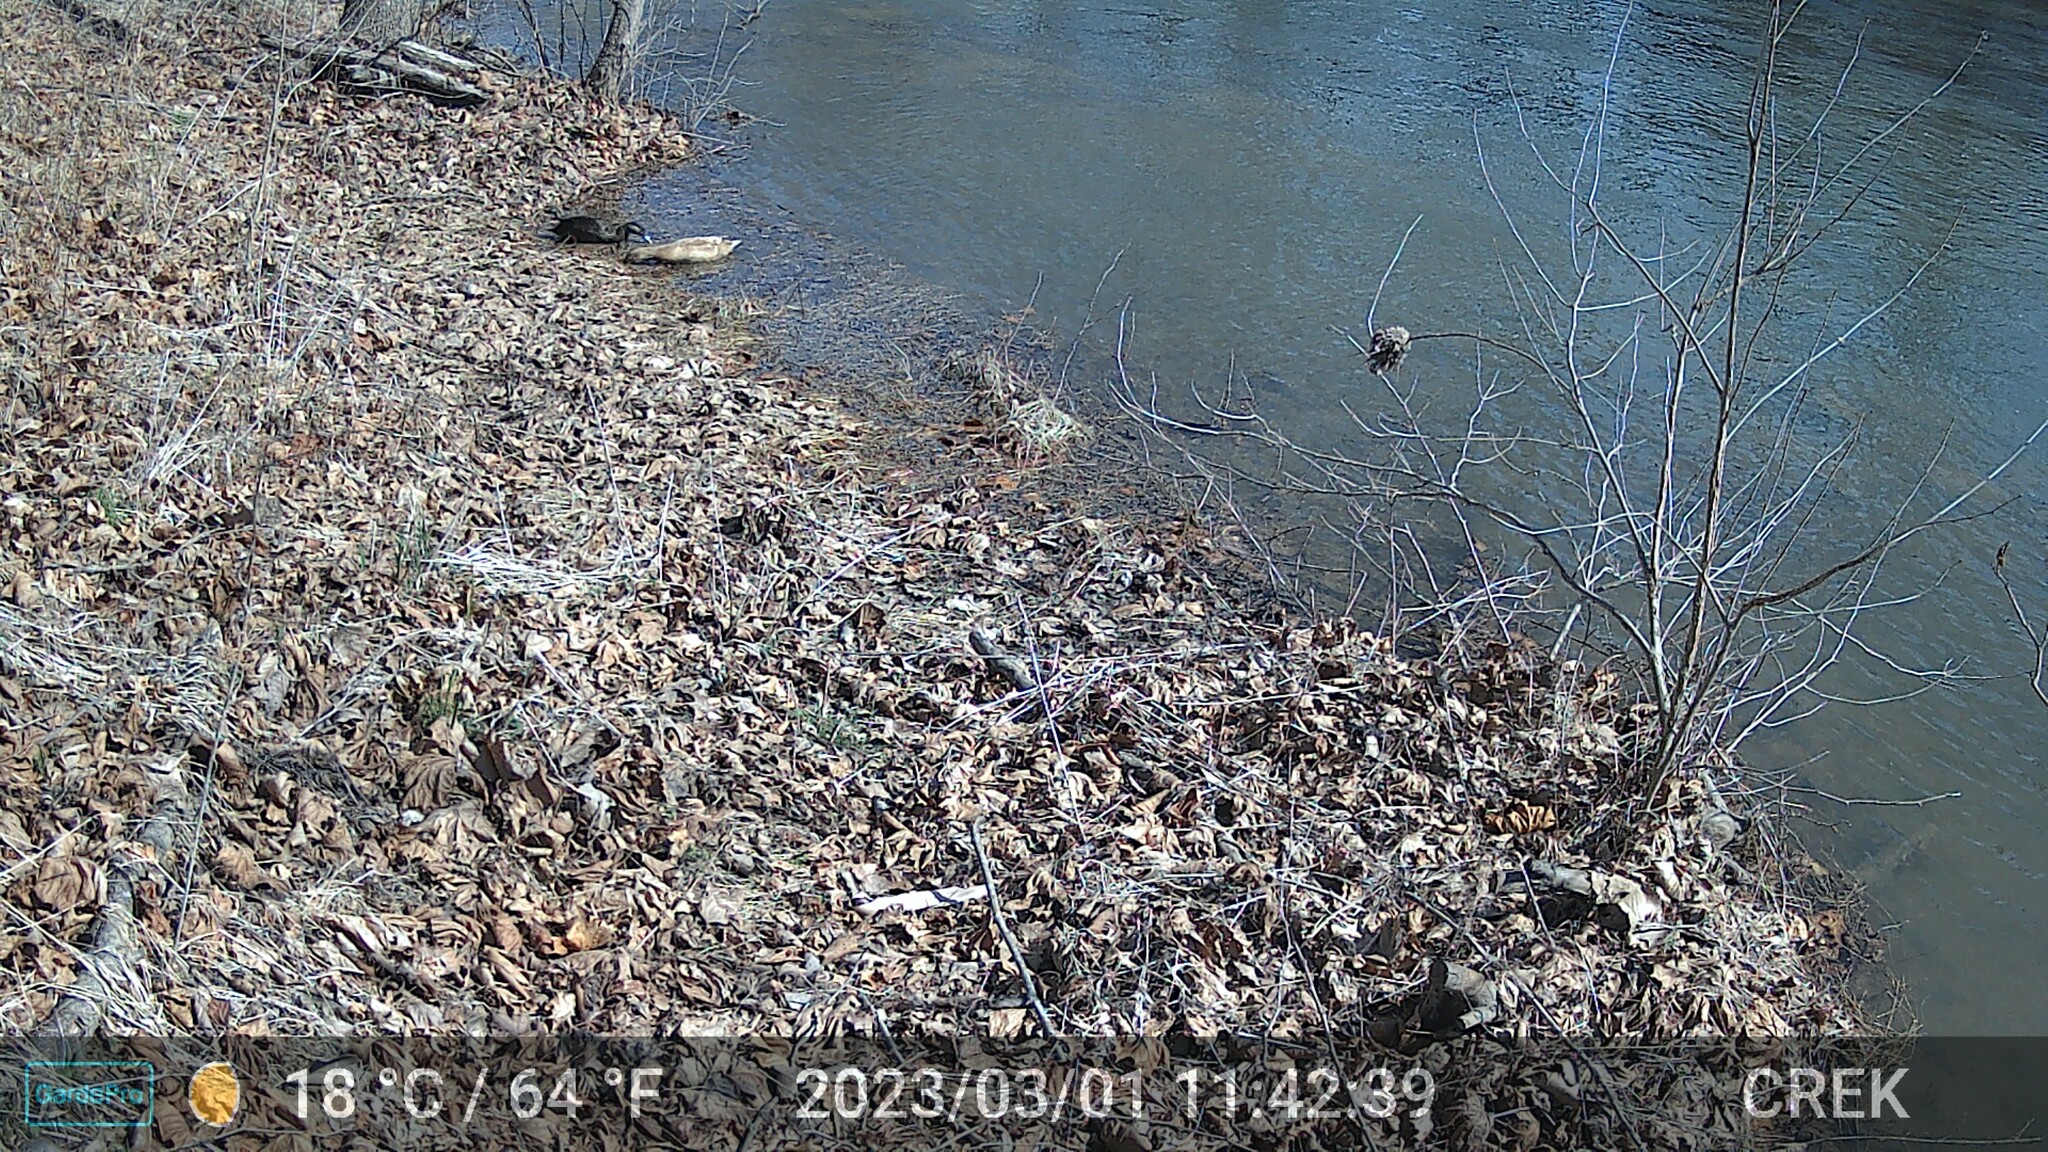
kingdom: Animalia
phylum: Chordata
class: Aves
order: Anseriformes
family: Anatidae
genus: Anas
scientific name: Anas platyrhynchos
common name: Mallard
